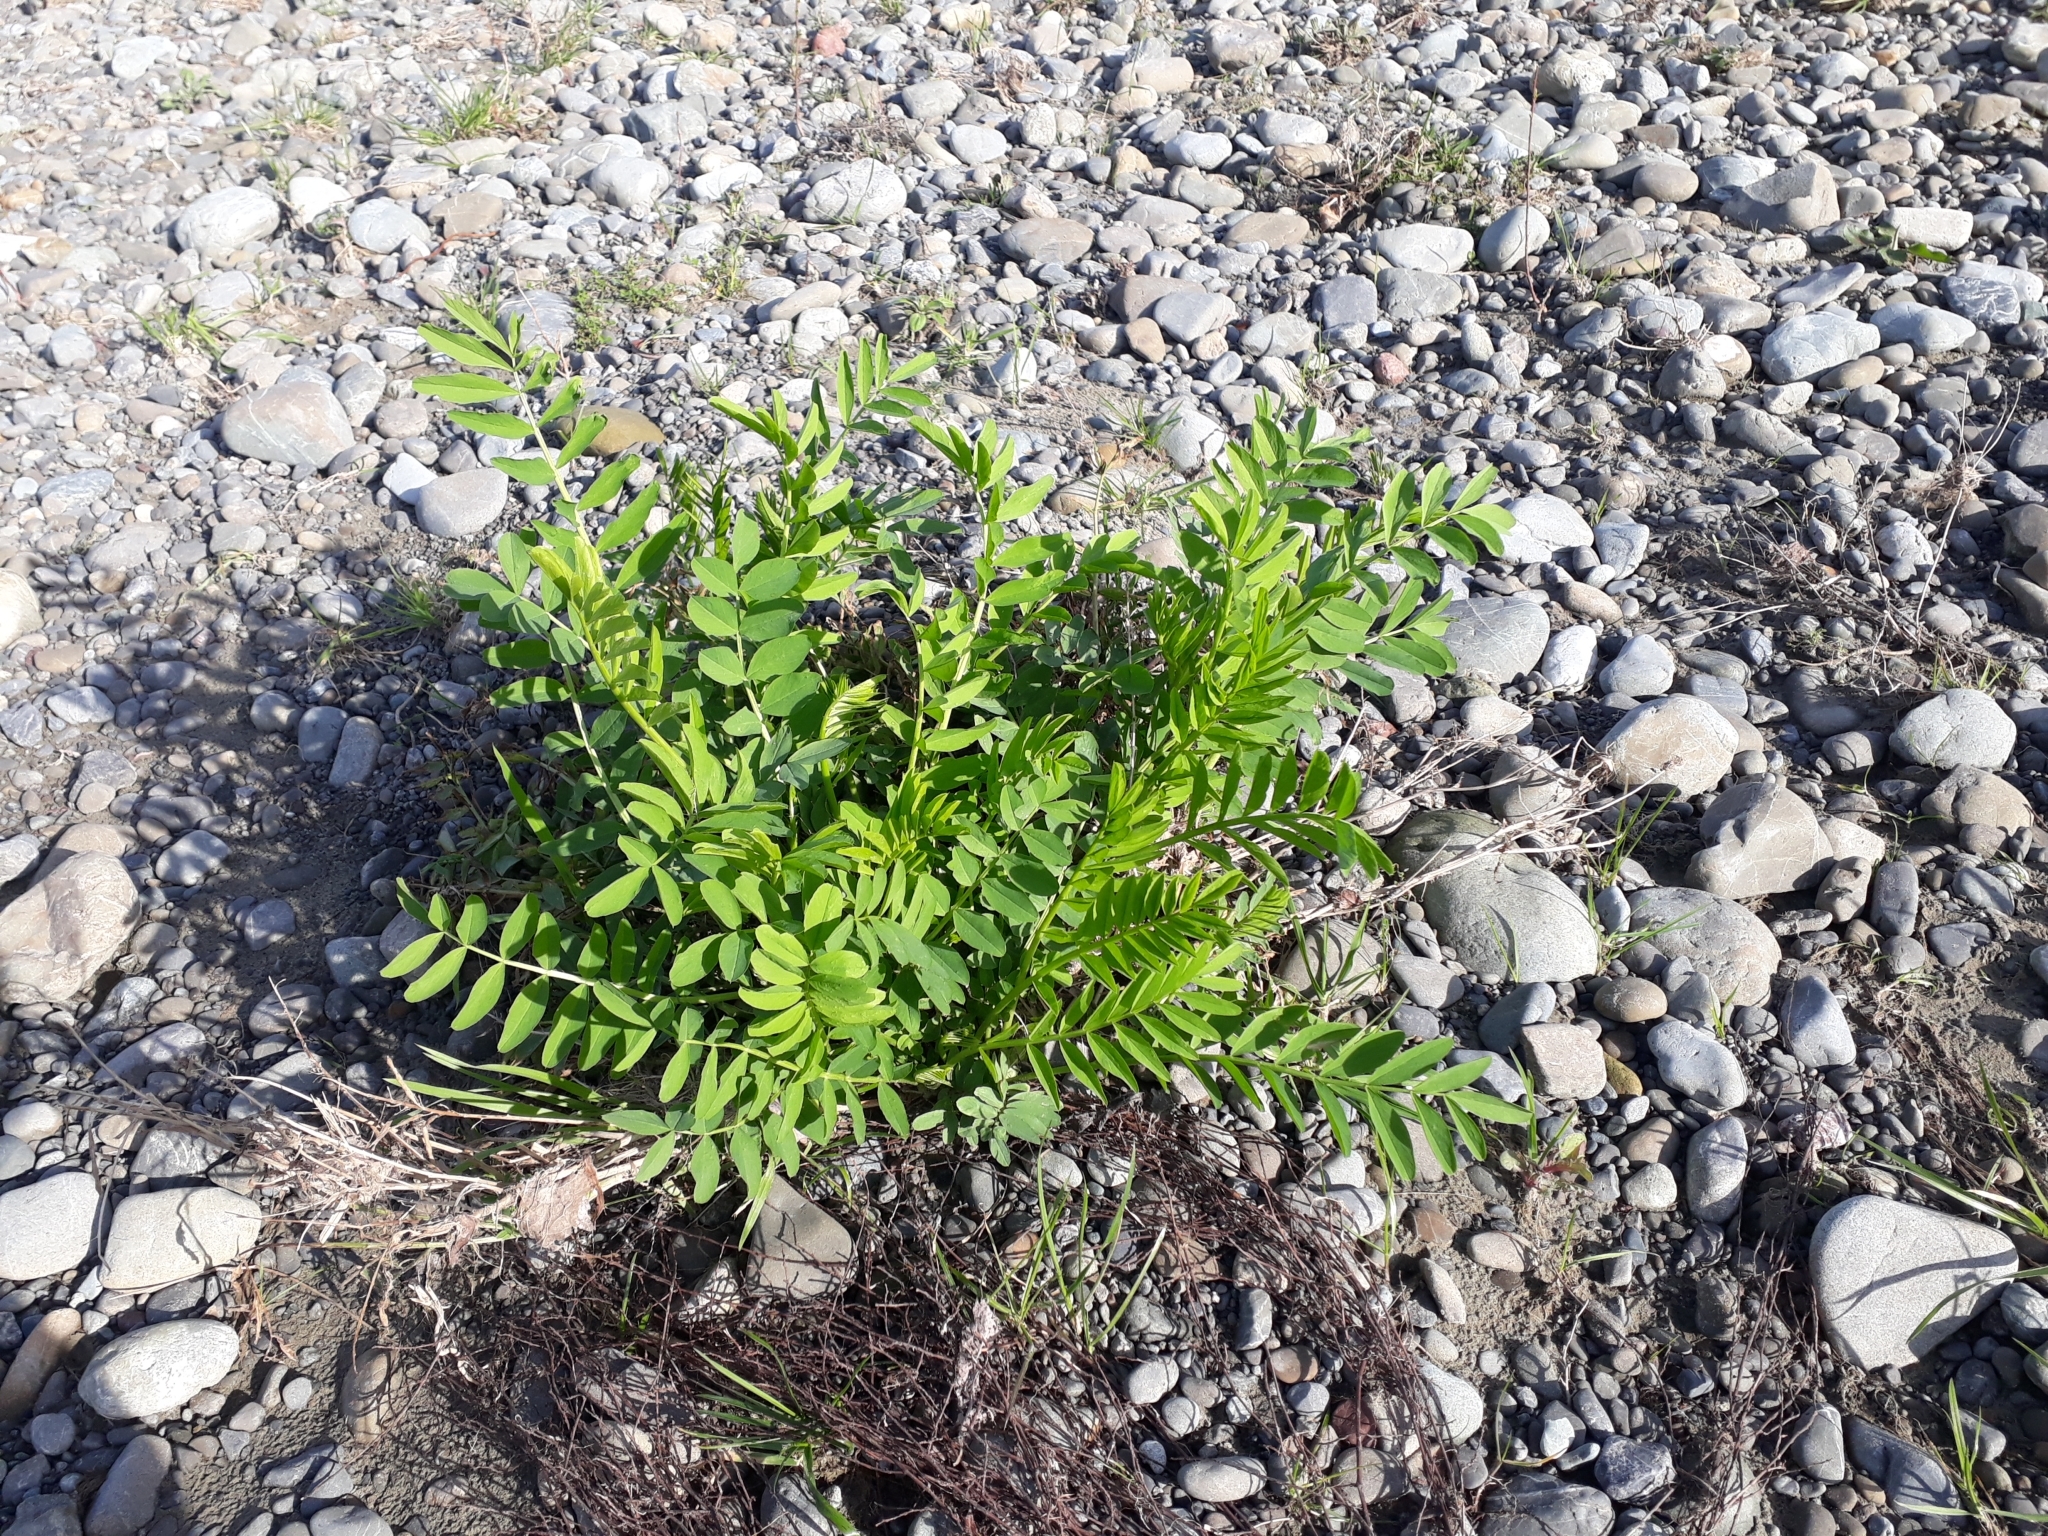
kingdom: Plantae
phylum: Tracheophyta
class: Magnoliopsida
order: Fabales
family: Fabaceae
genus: Galega
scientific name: Galega officinalis
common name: Goat's-rue
